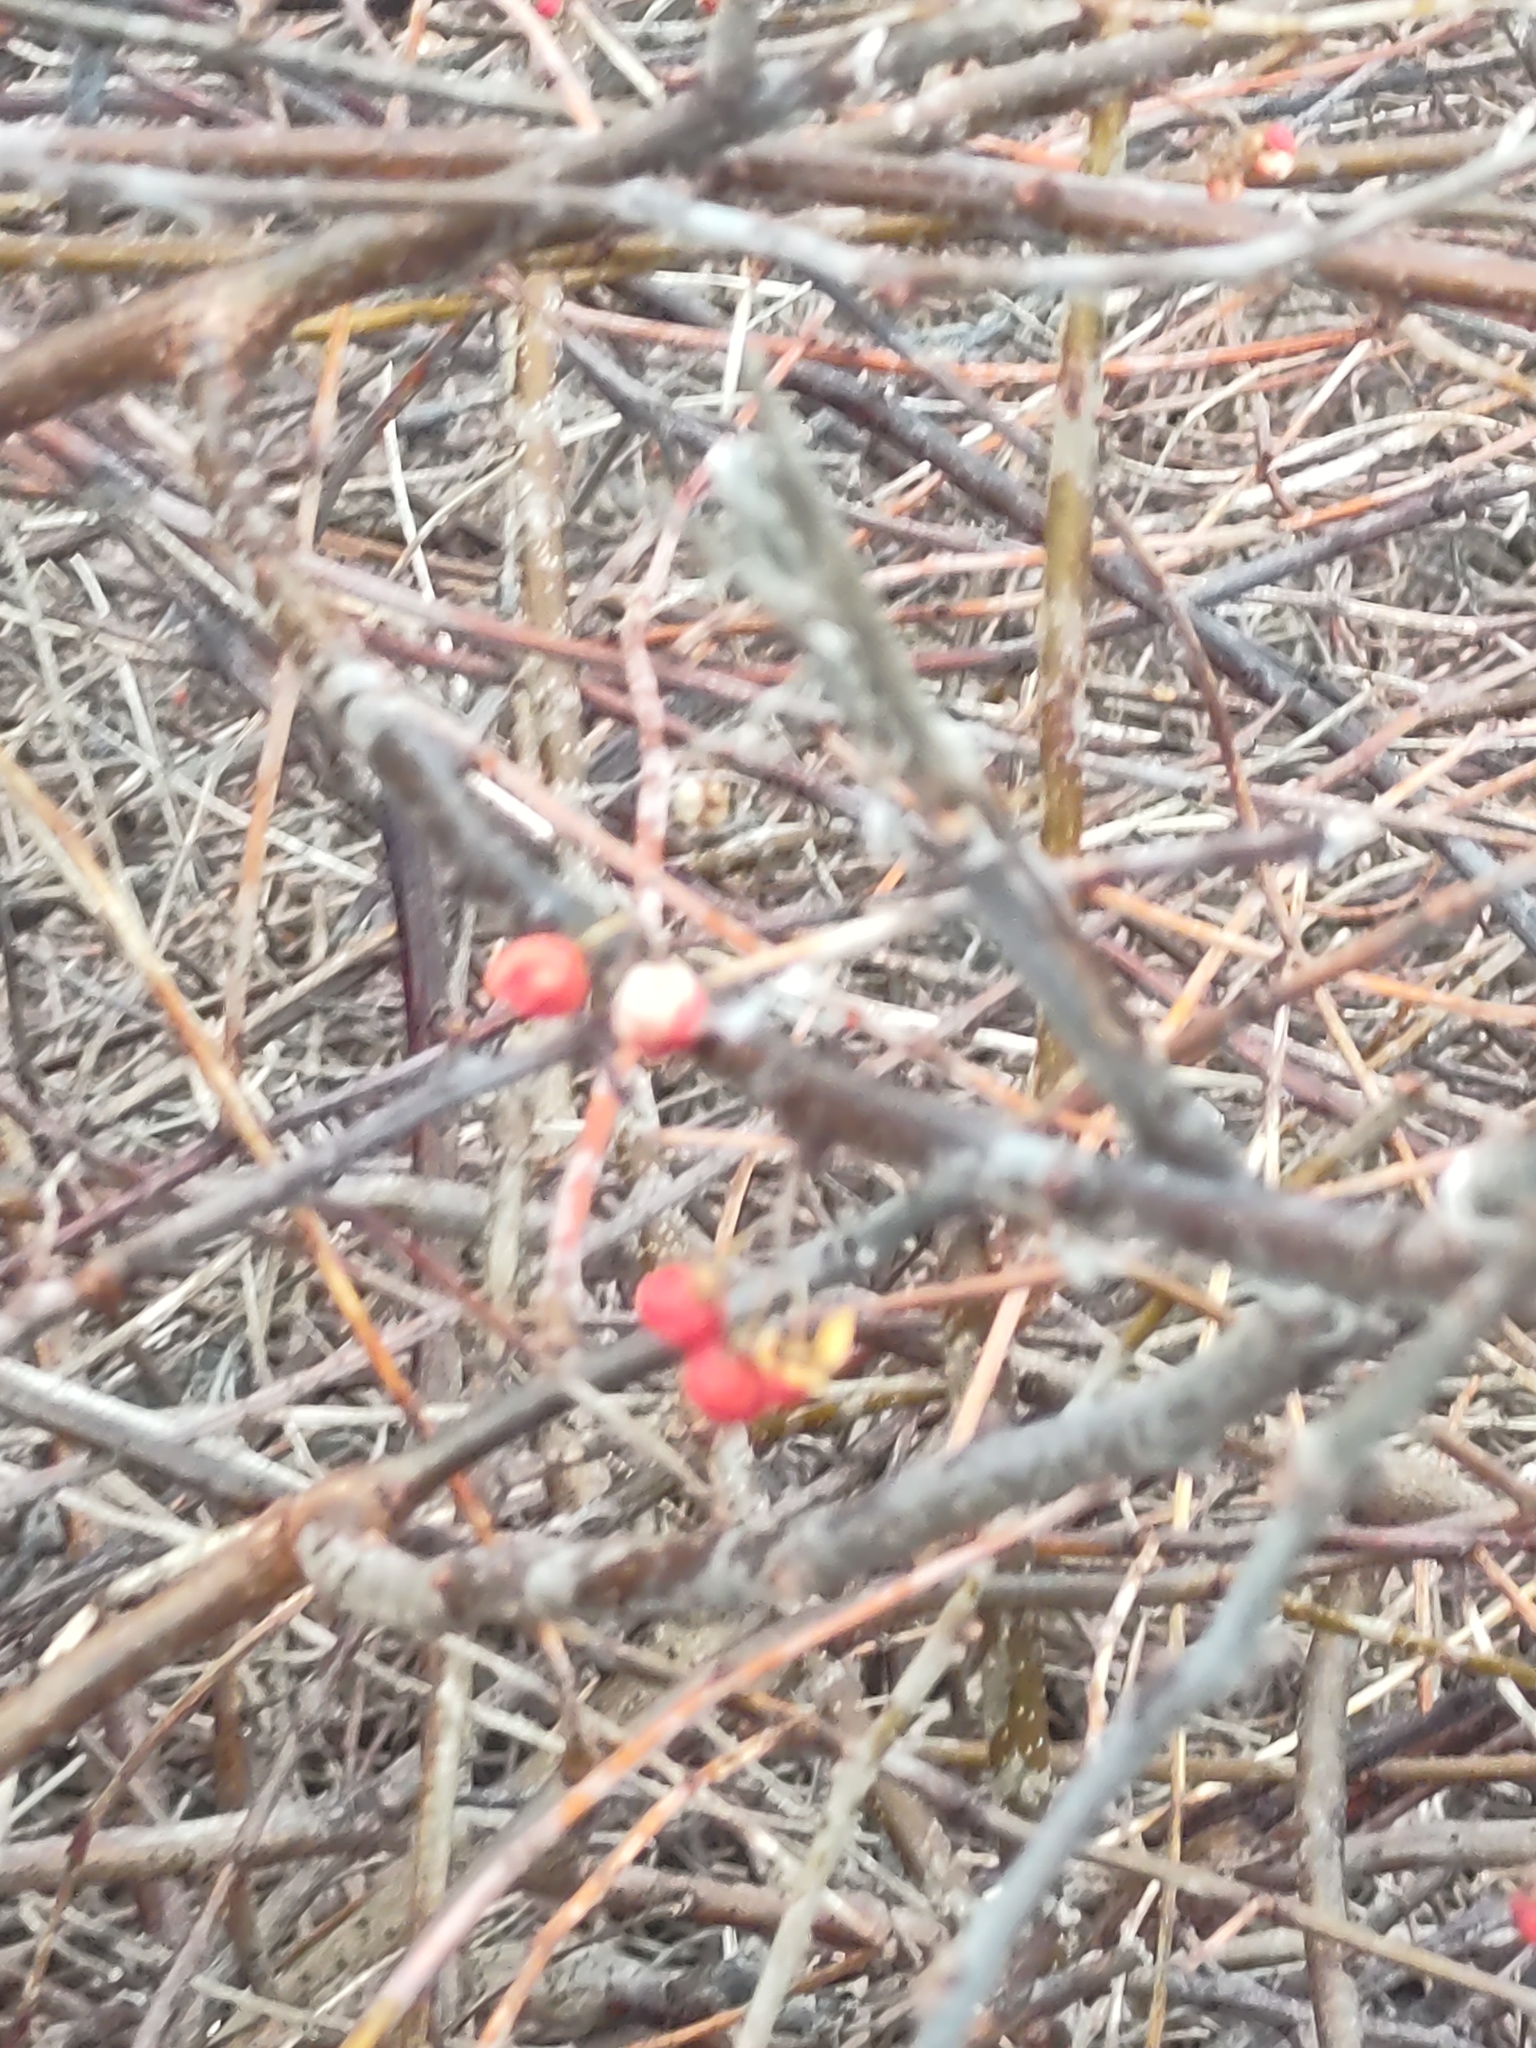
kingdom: Plantae
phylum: Tracheophyta
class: Magnoliopsida
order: Celastrales
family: Celastraceae
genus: Celastrus
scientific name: Celastrus orbiculatus
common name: Oriental bittersweet
